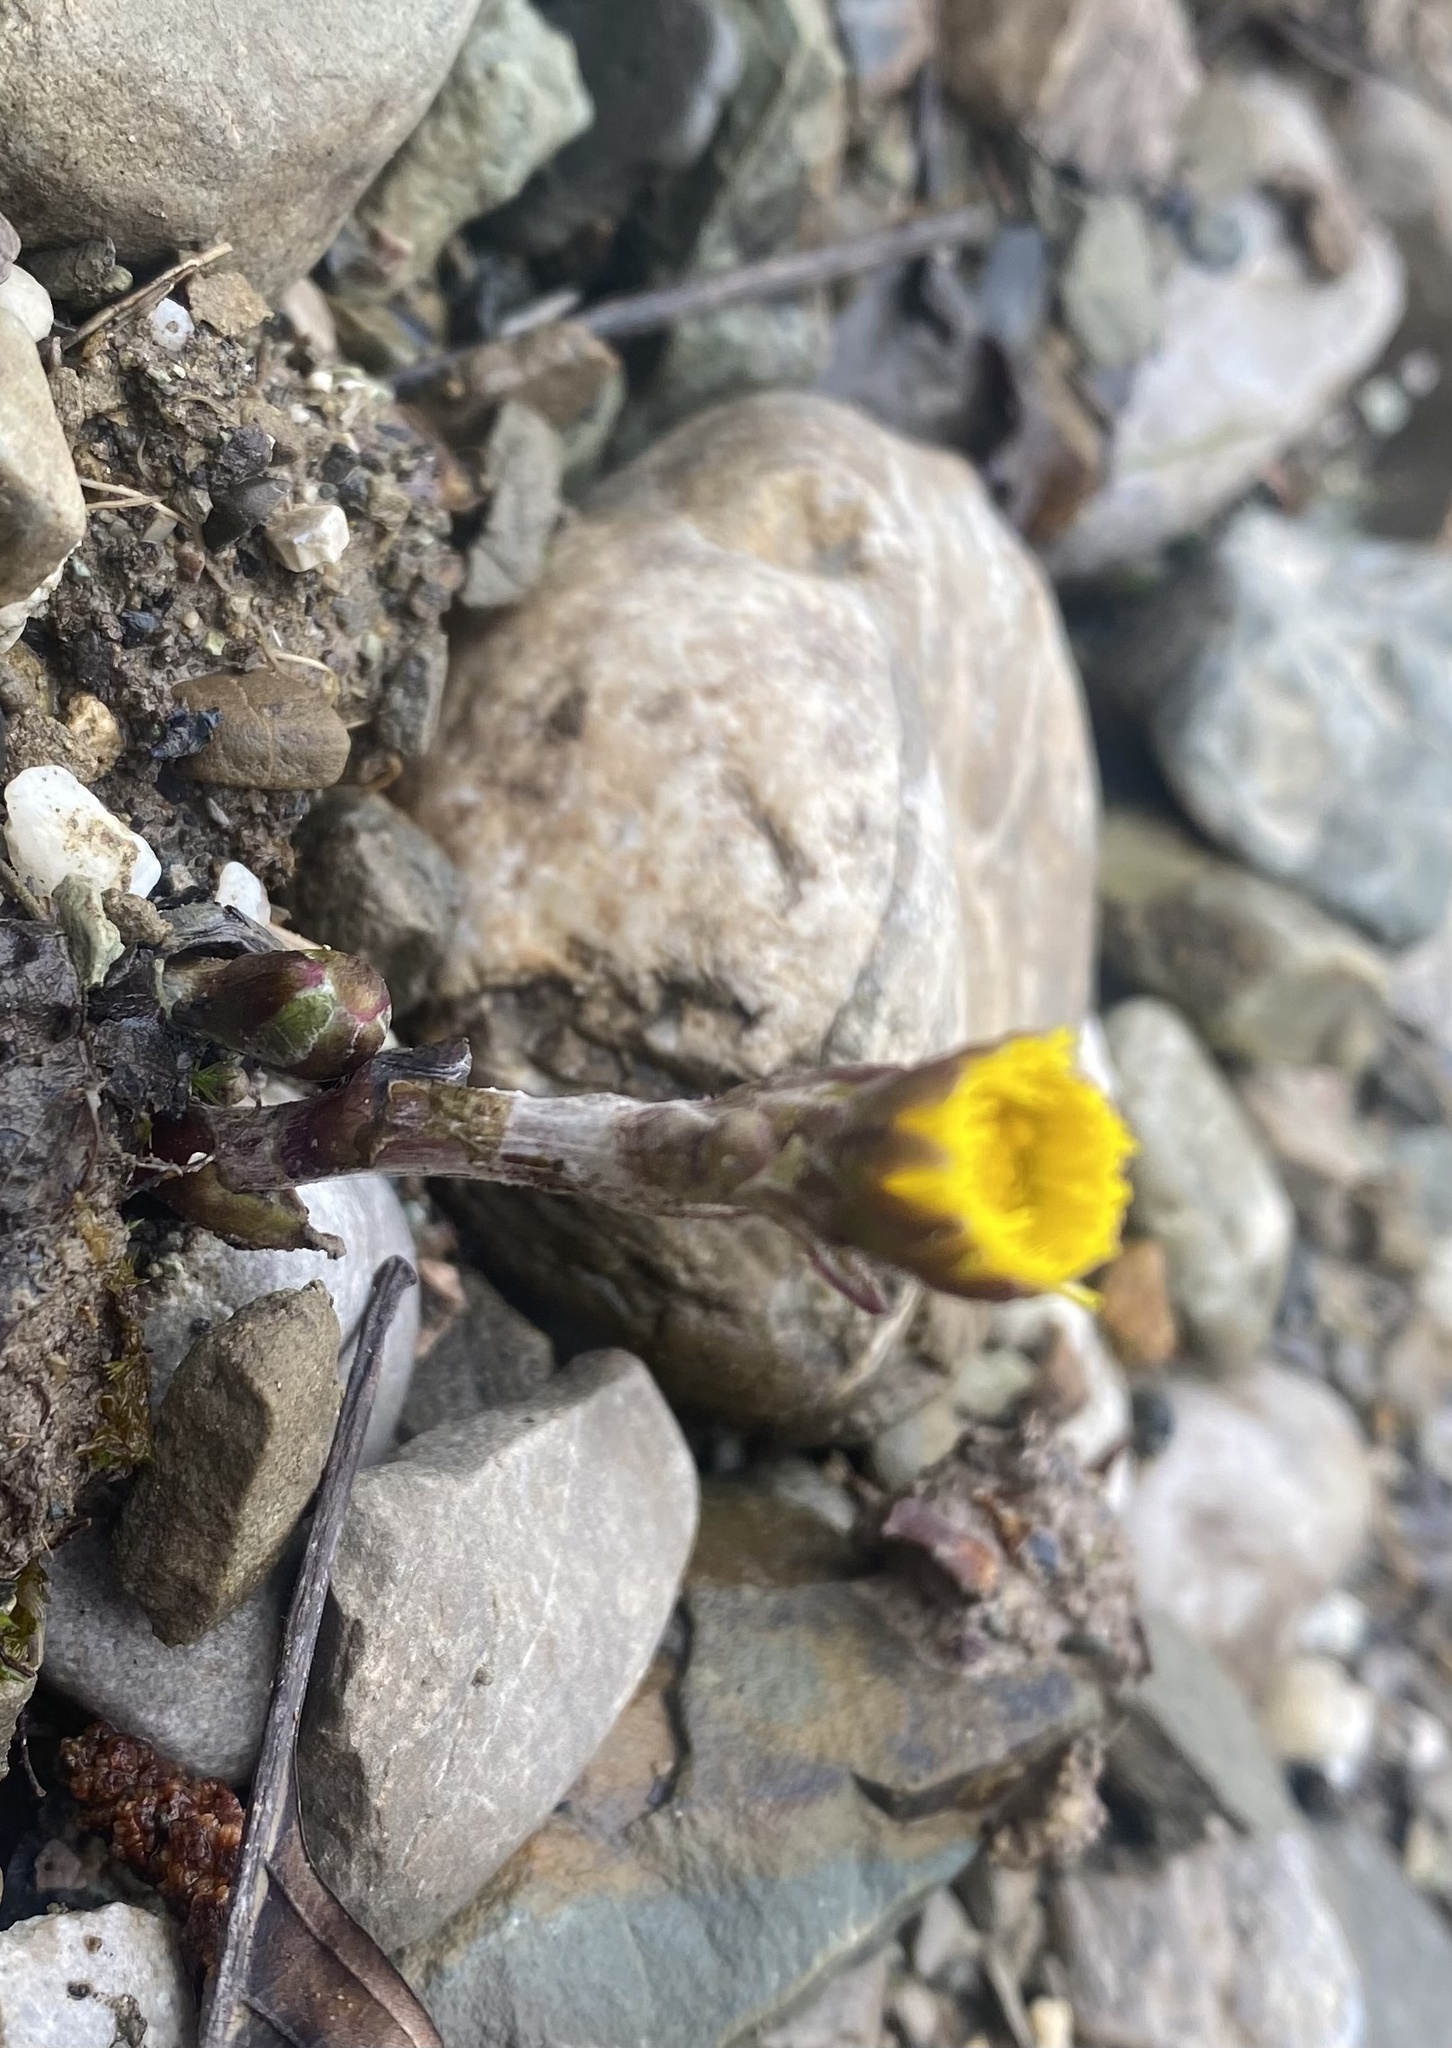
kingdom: Plantae
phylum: Tracheophyta
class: Magnoliopsida
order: Asterales
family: Asteraceae
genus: Tussilago
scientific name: Tussilago farfara
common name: Coltsfoot
